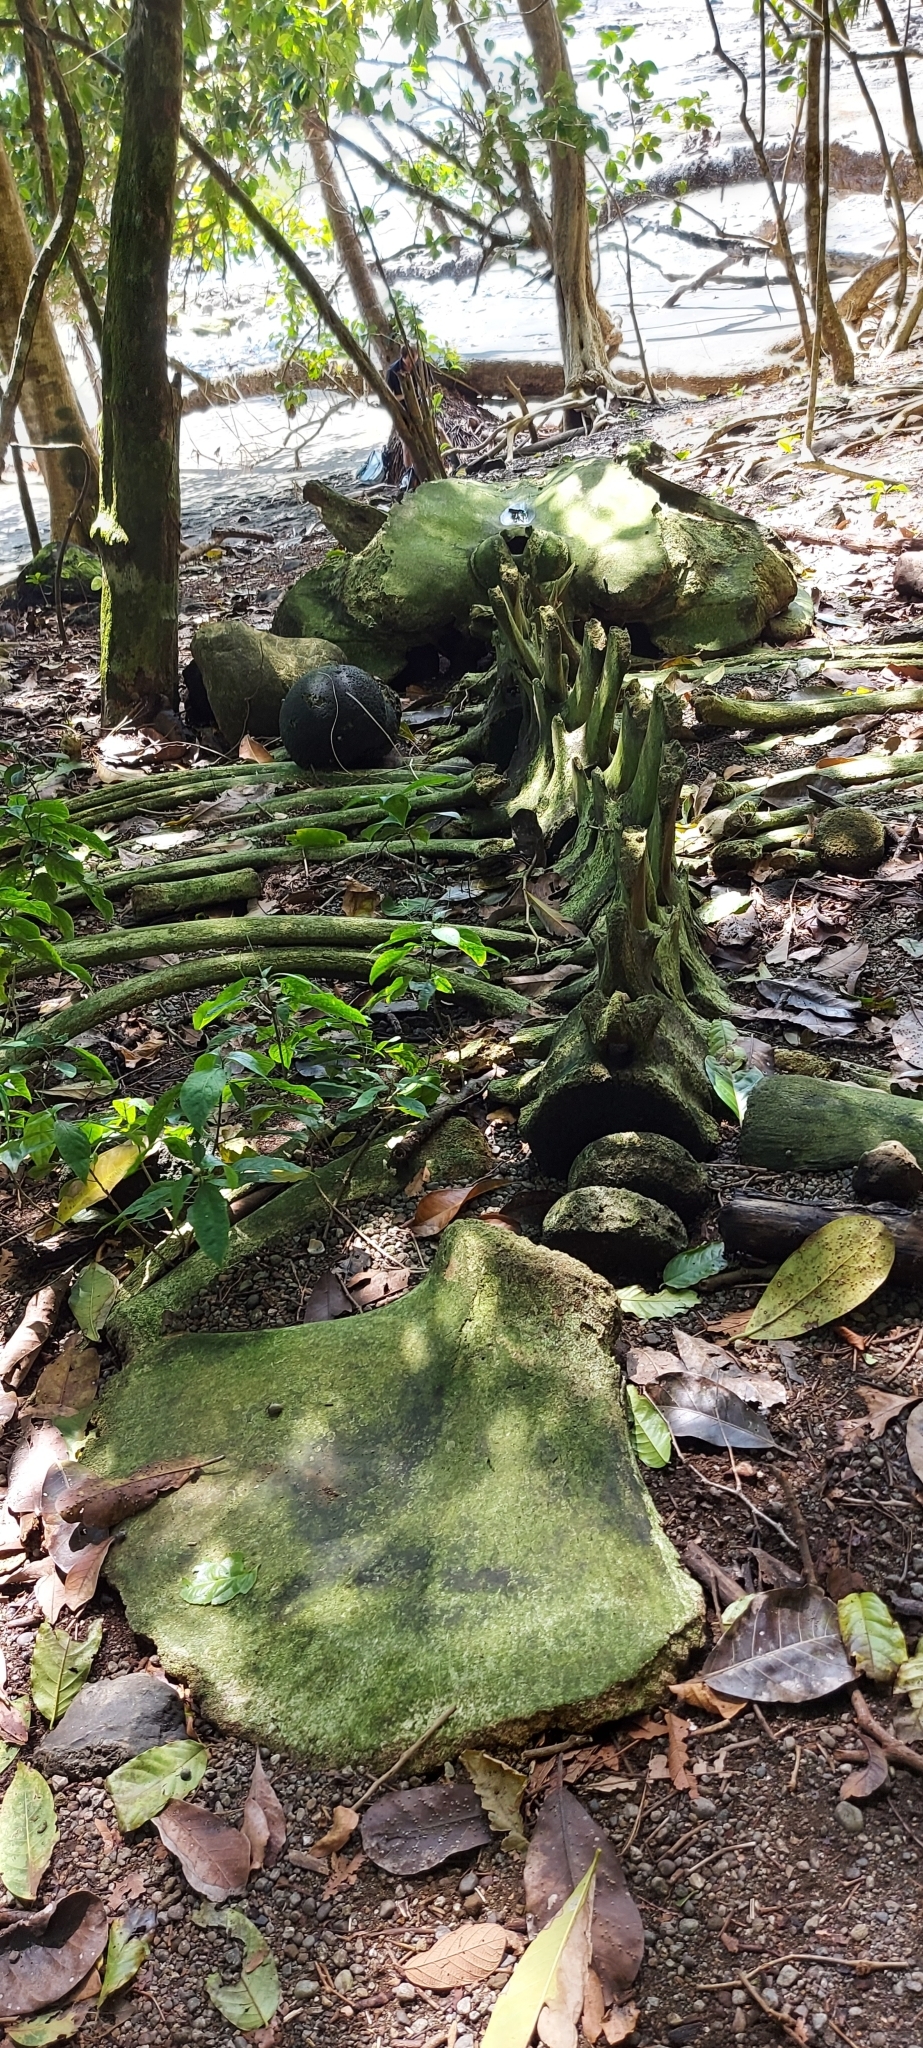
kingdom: Animalia
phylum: Chordata
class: Mammalia
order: Cetacea
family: Balaenopteridae
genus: Megaptera
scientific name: Megaptera novaeangliae
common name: Humpback whale
